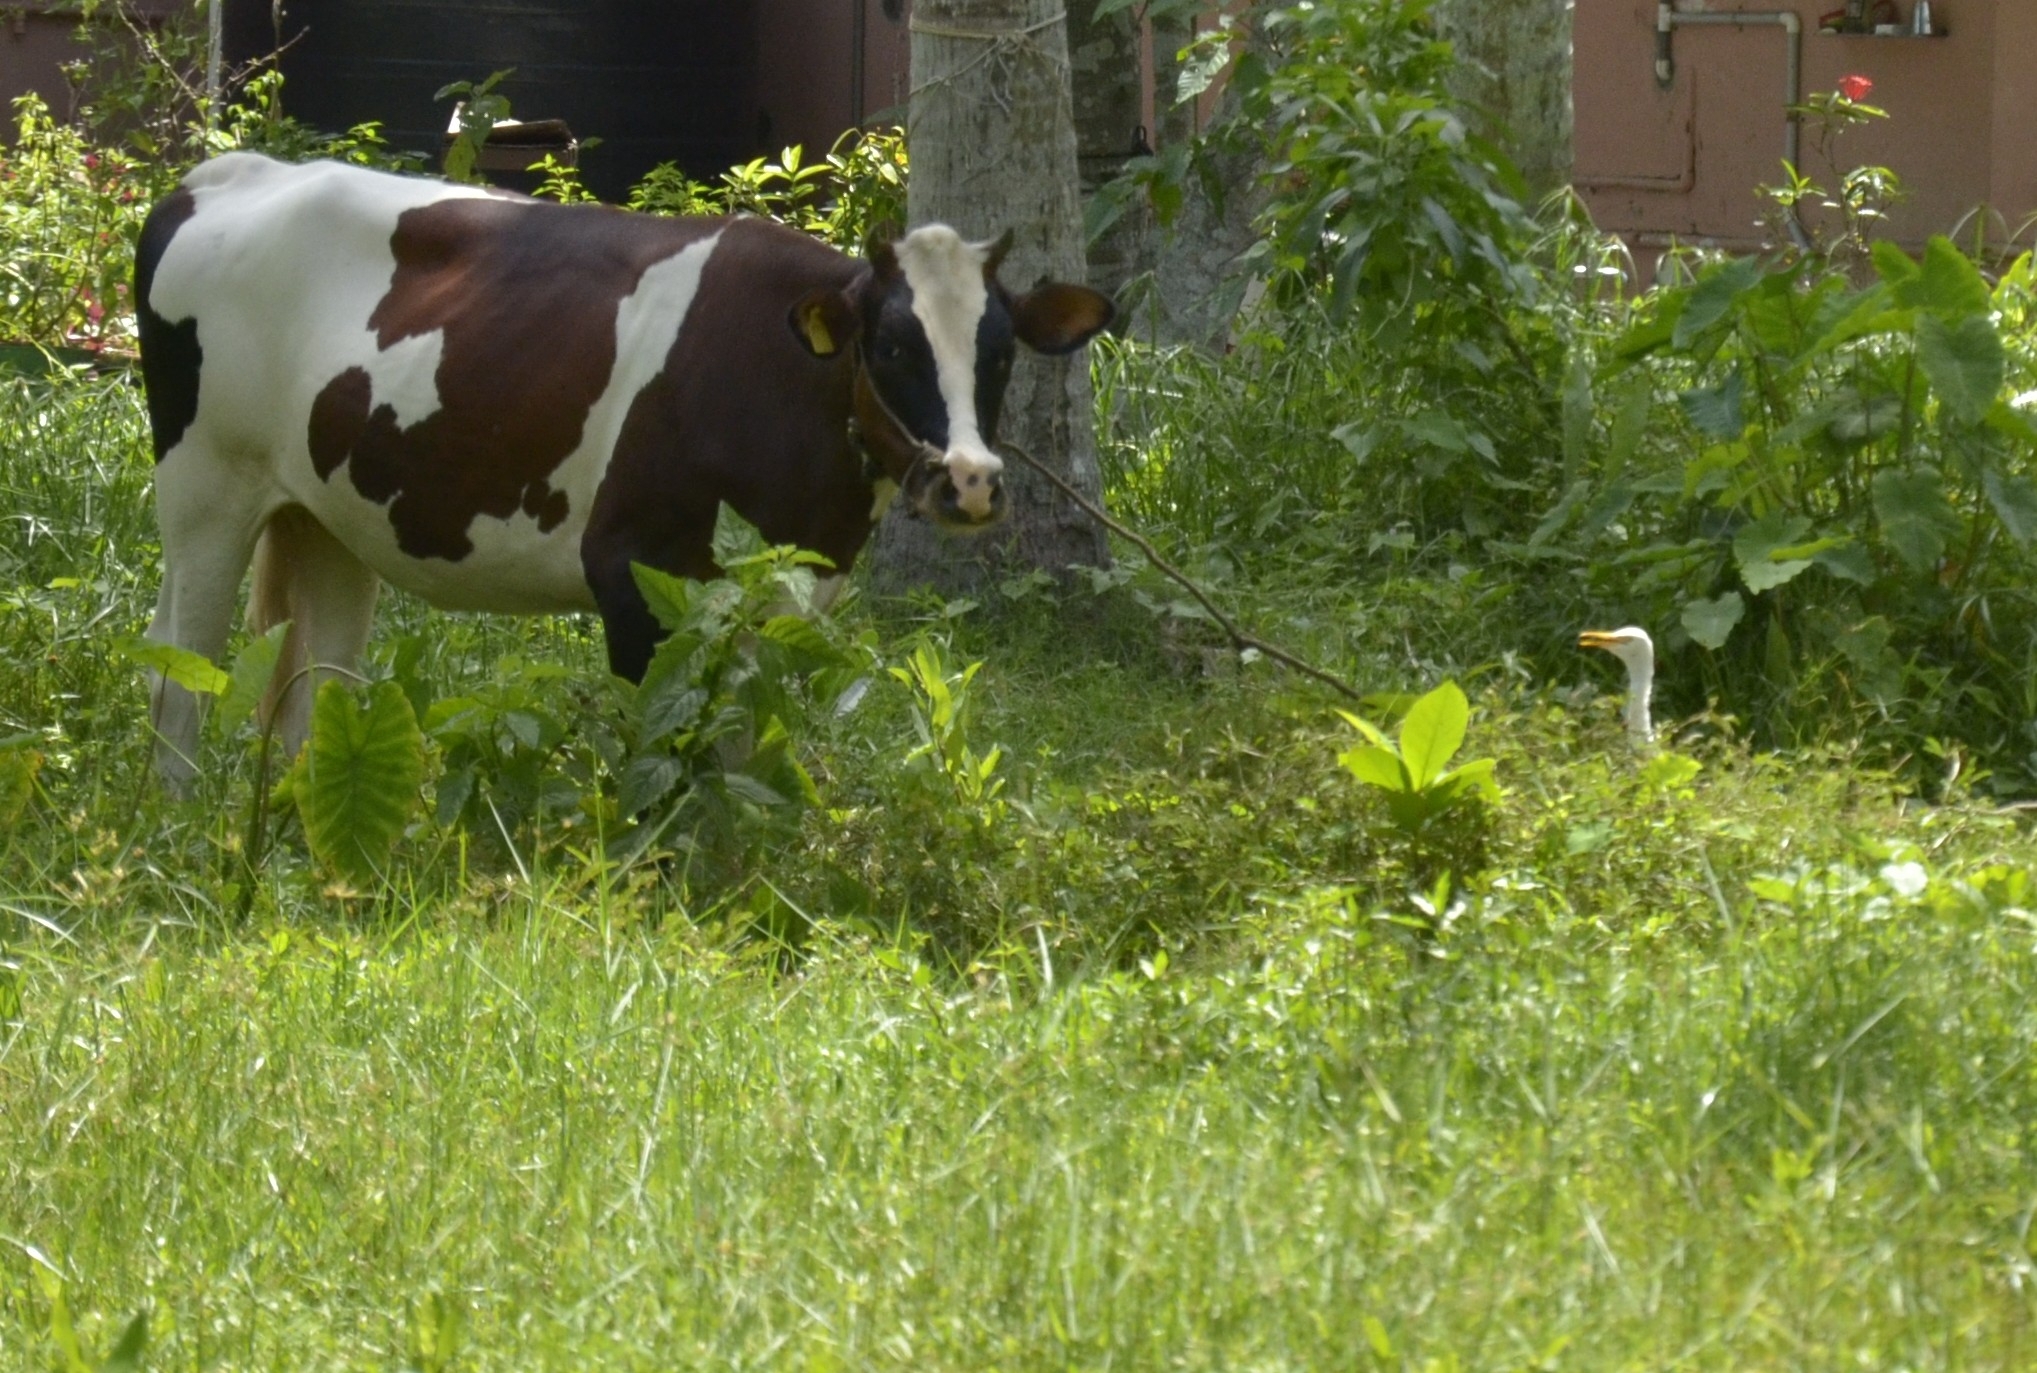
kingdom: Animalia
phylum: Chordata
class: Aves
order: Pelecaniformes
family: Ardeidae
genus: Bubulcus
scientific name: Bubulcus coromandus
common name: Eastern cattle egret
